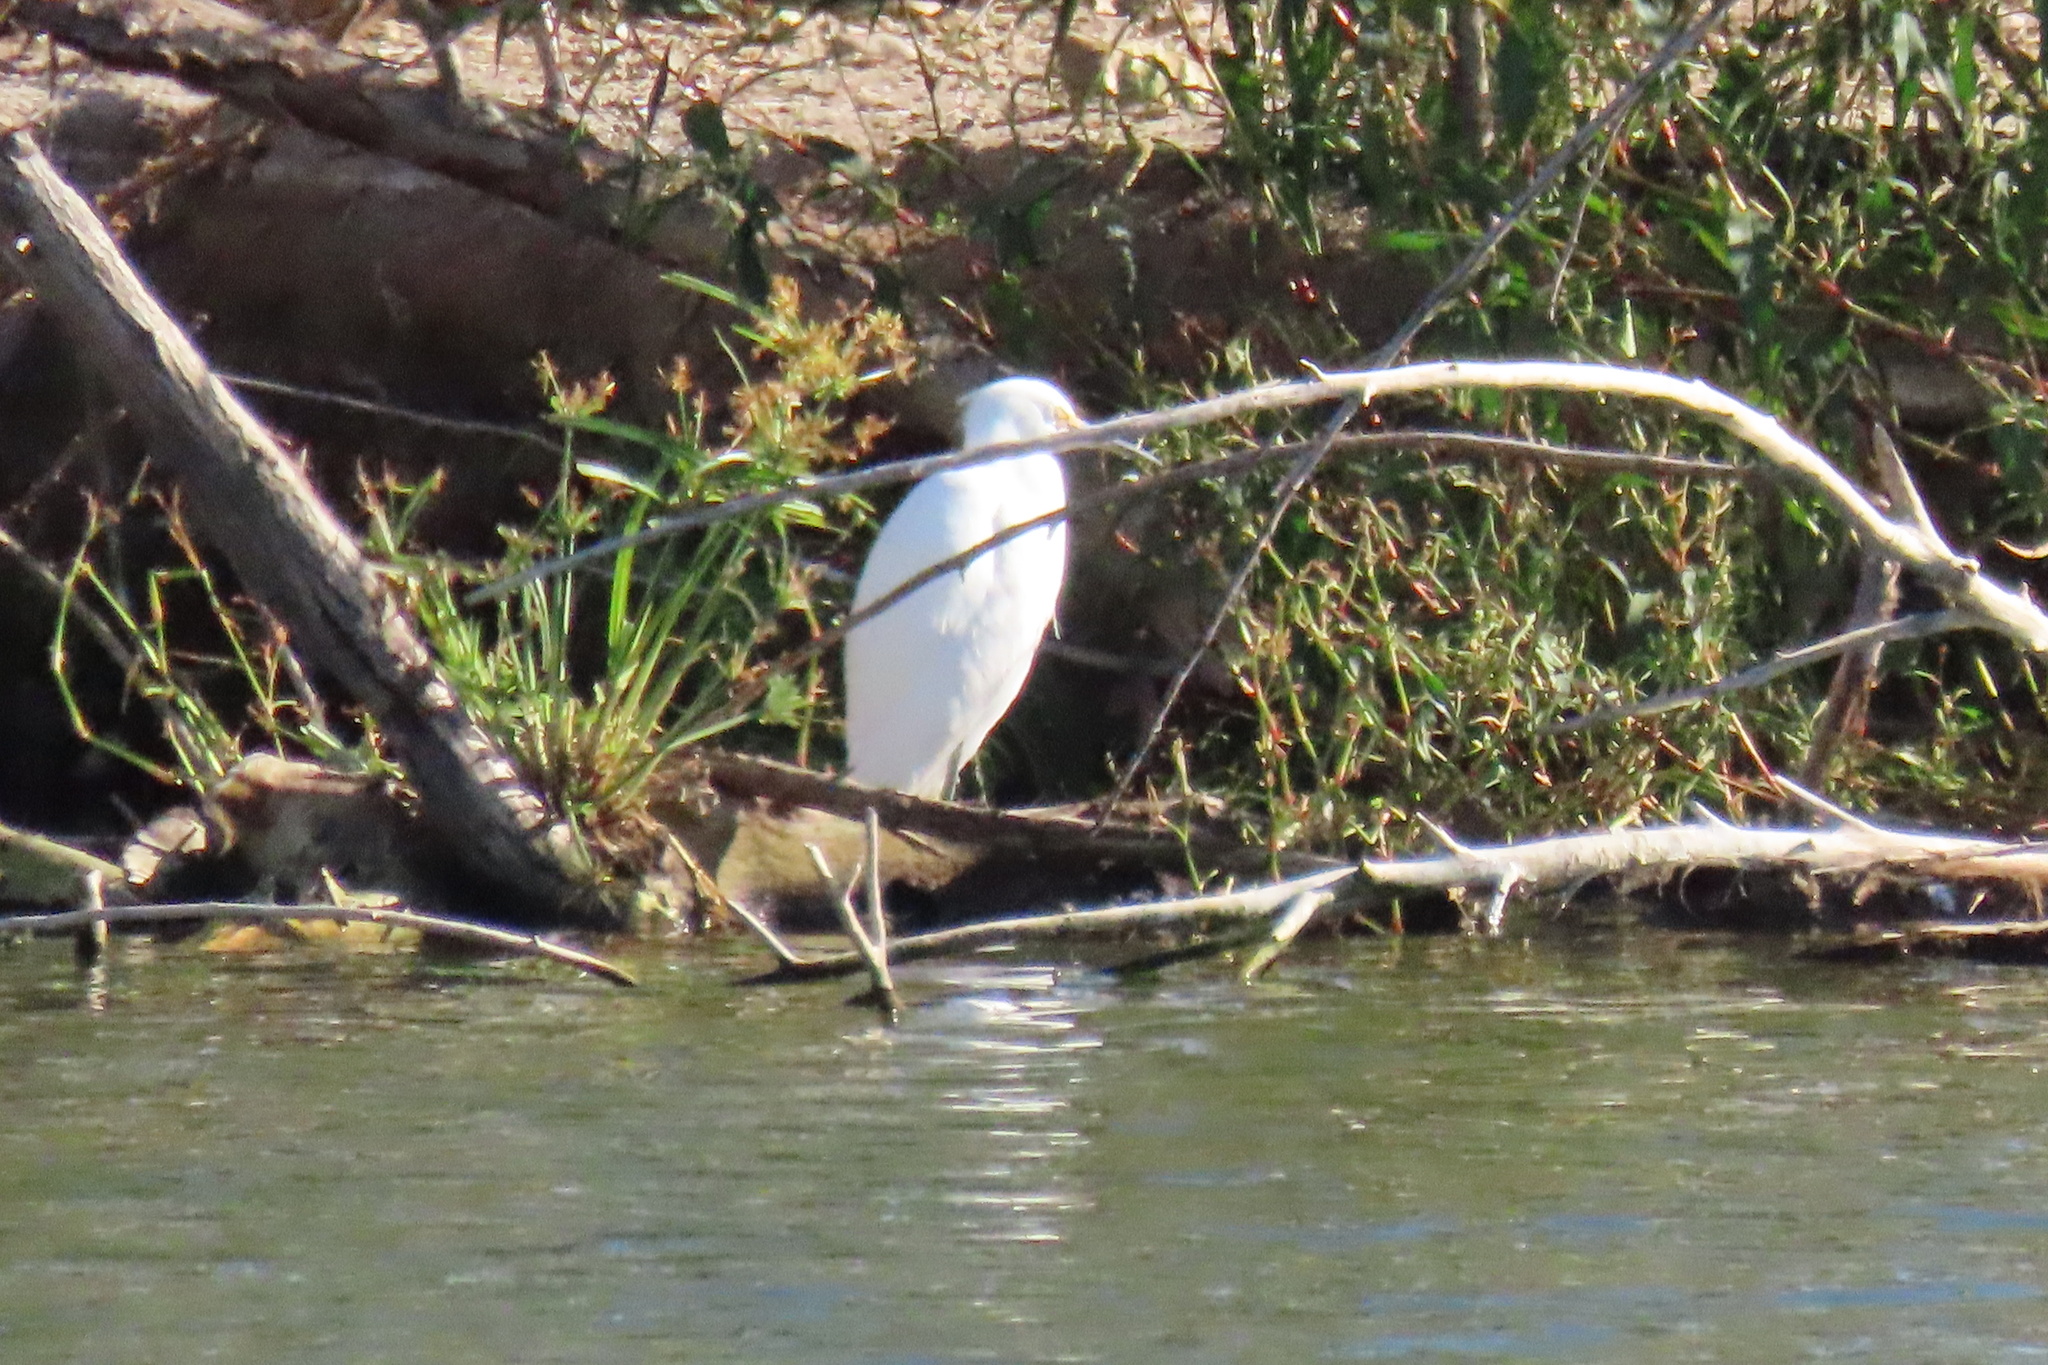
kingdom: Animalia
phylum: Chordata
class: Aves
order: Pelecaniformes
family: Ardeidae
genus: Egretta
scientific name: Egretta thula
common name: Snowy egret
